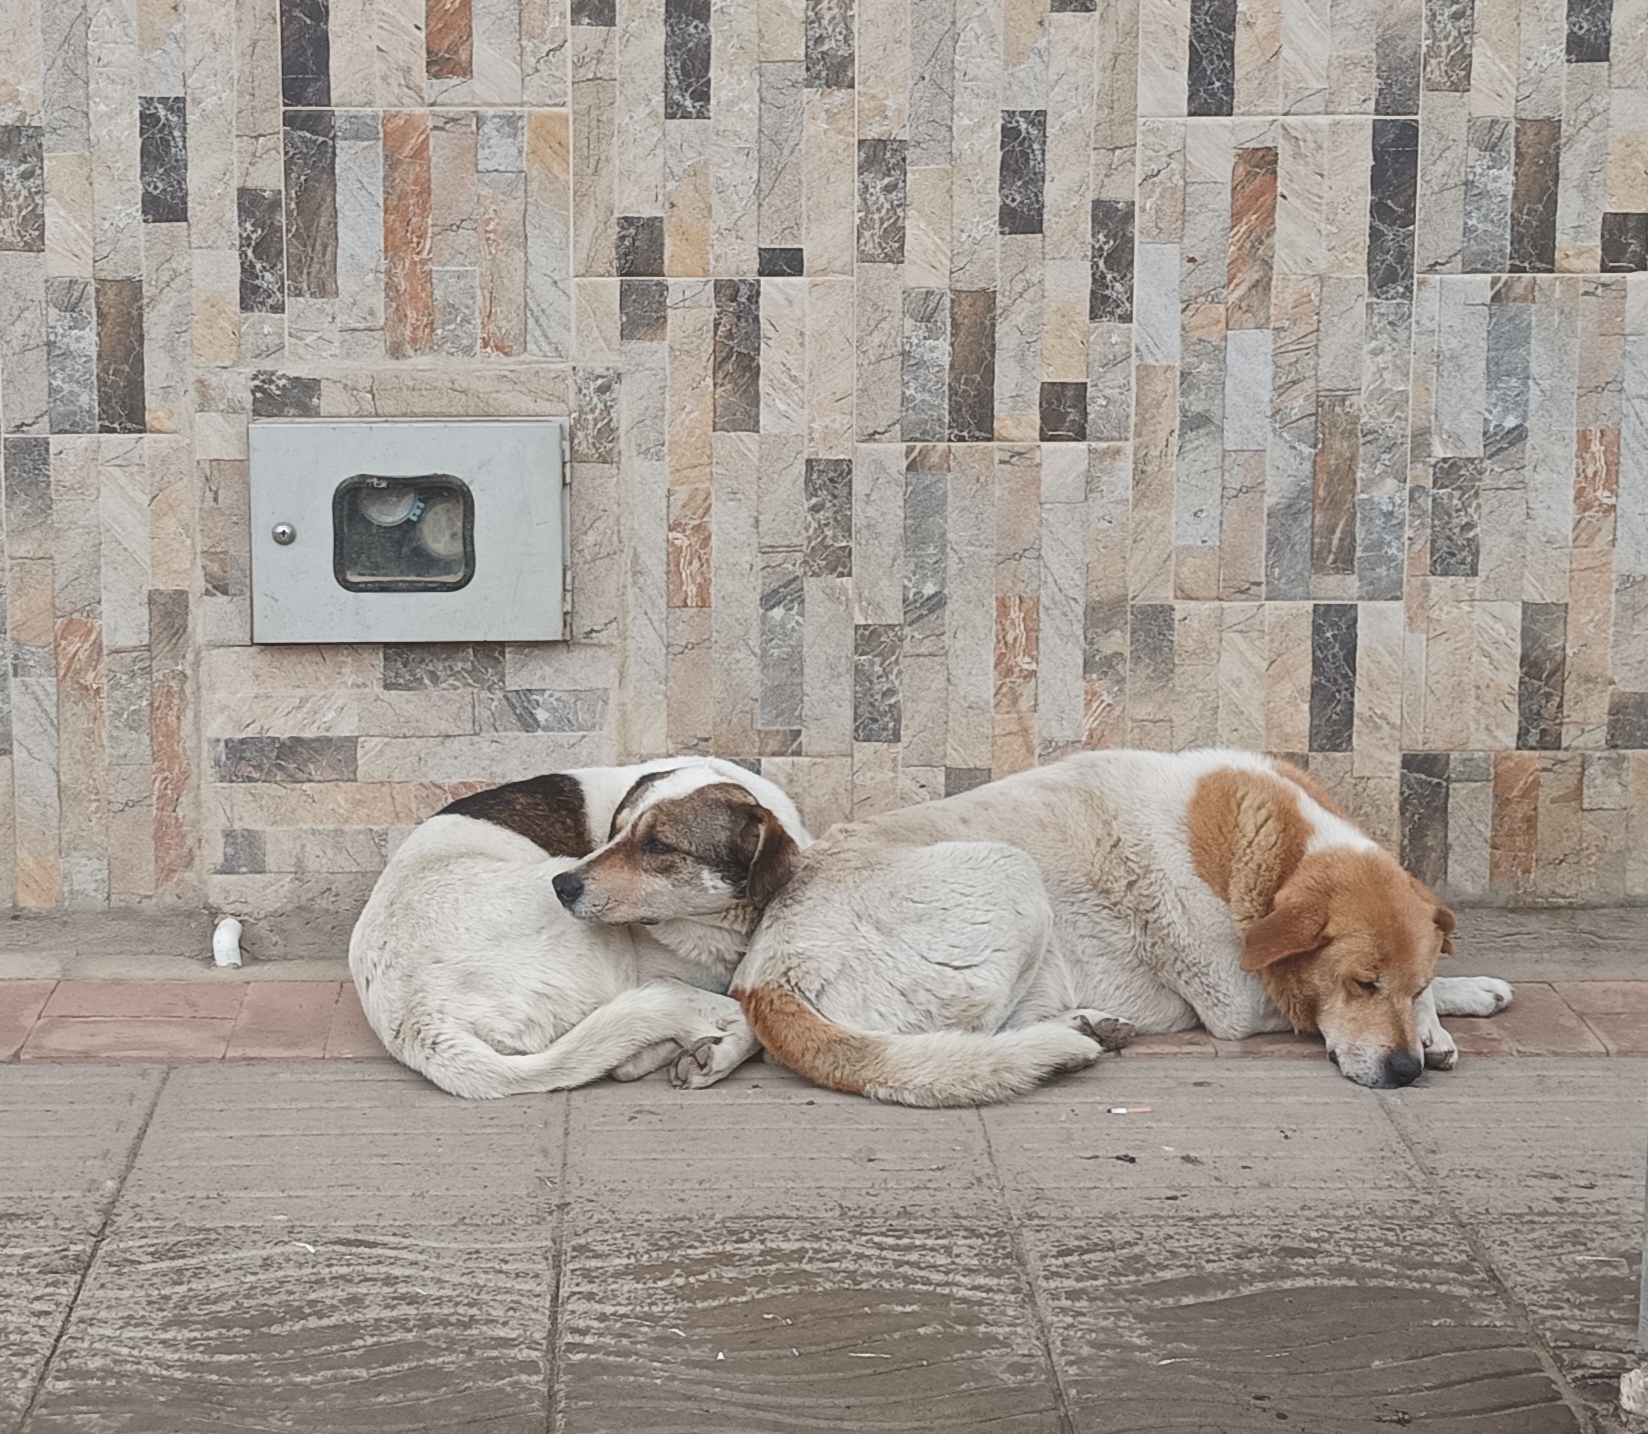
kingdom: Animalia
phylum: Chordata
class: Mammalia
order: Carnivora
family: Canidae
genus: Canis
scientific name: Canis lupus
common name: Gray wolf
